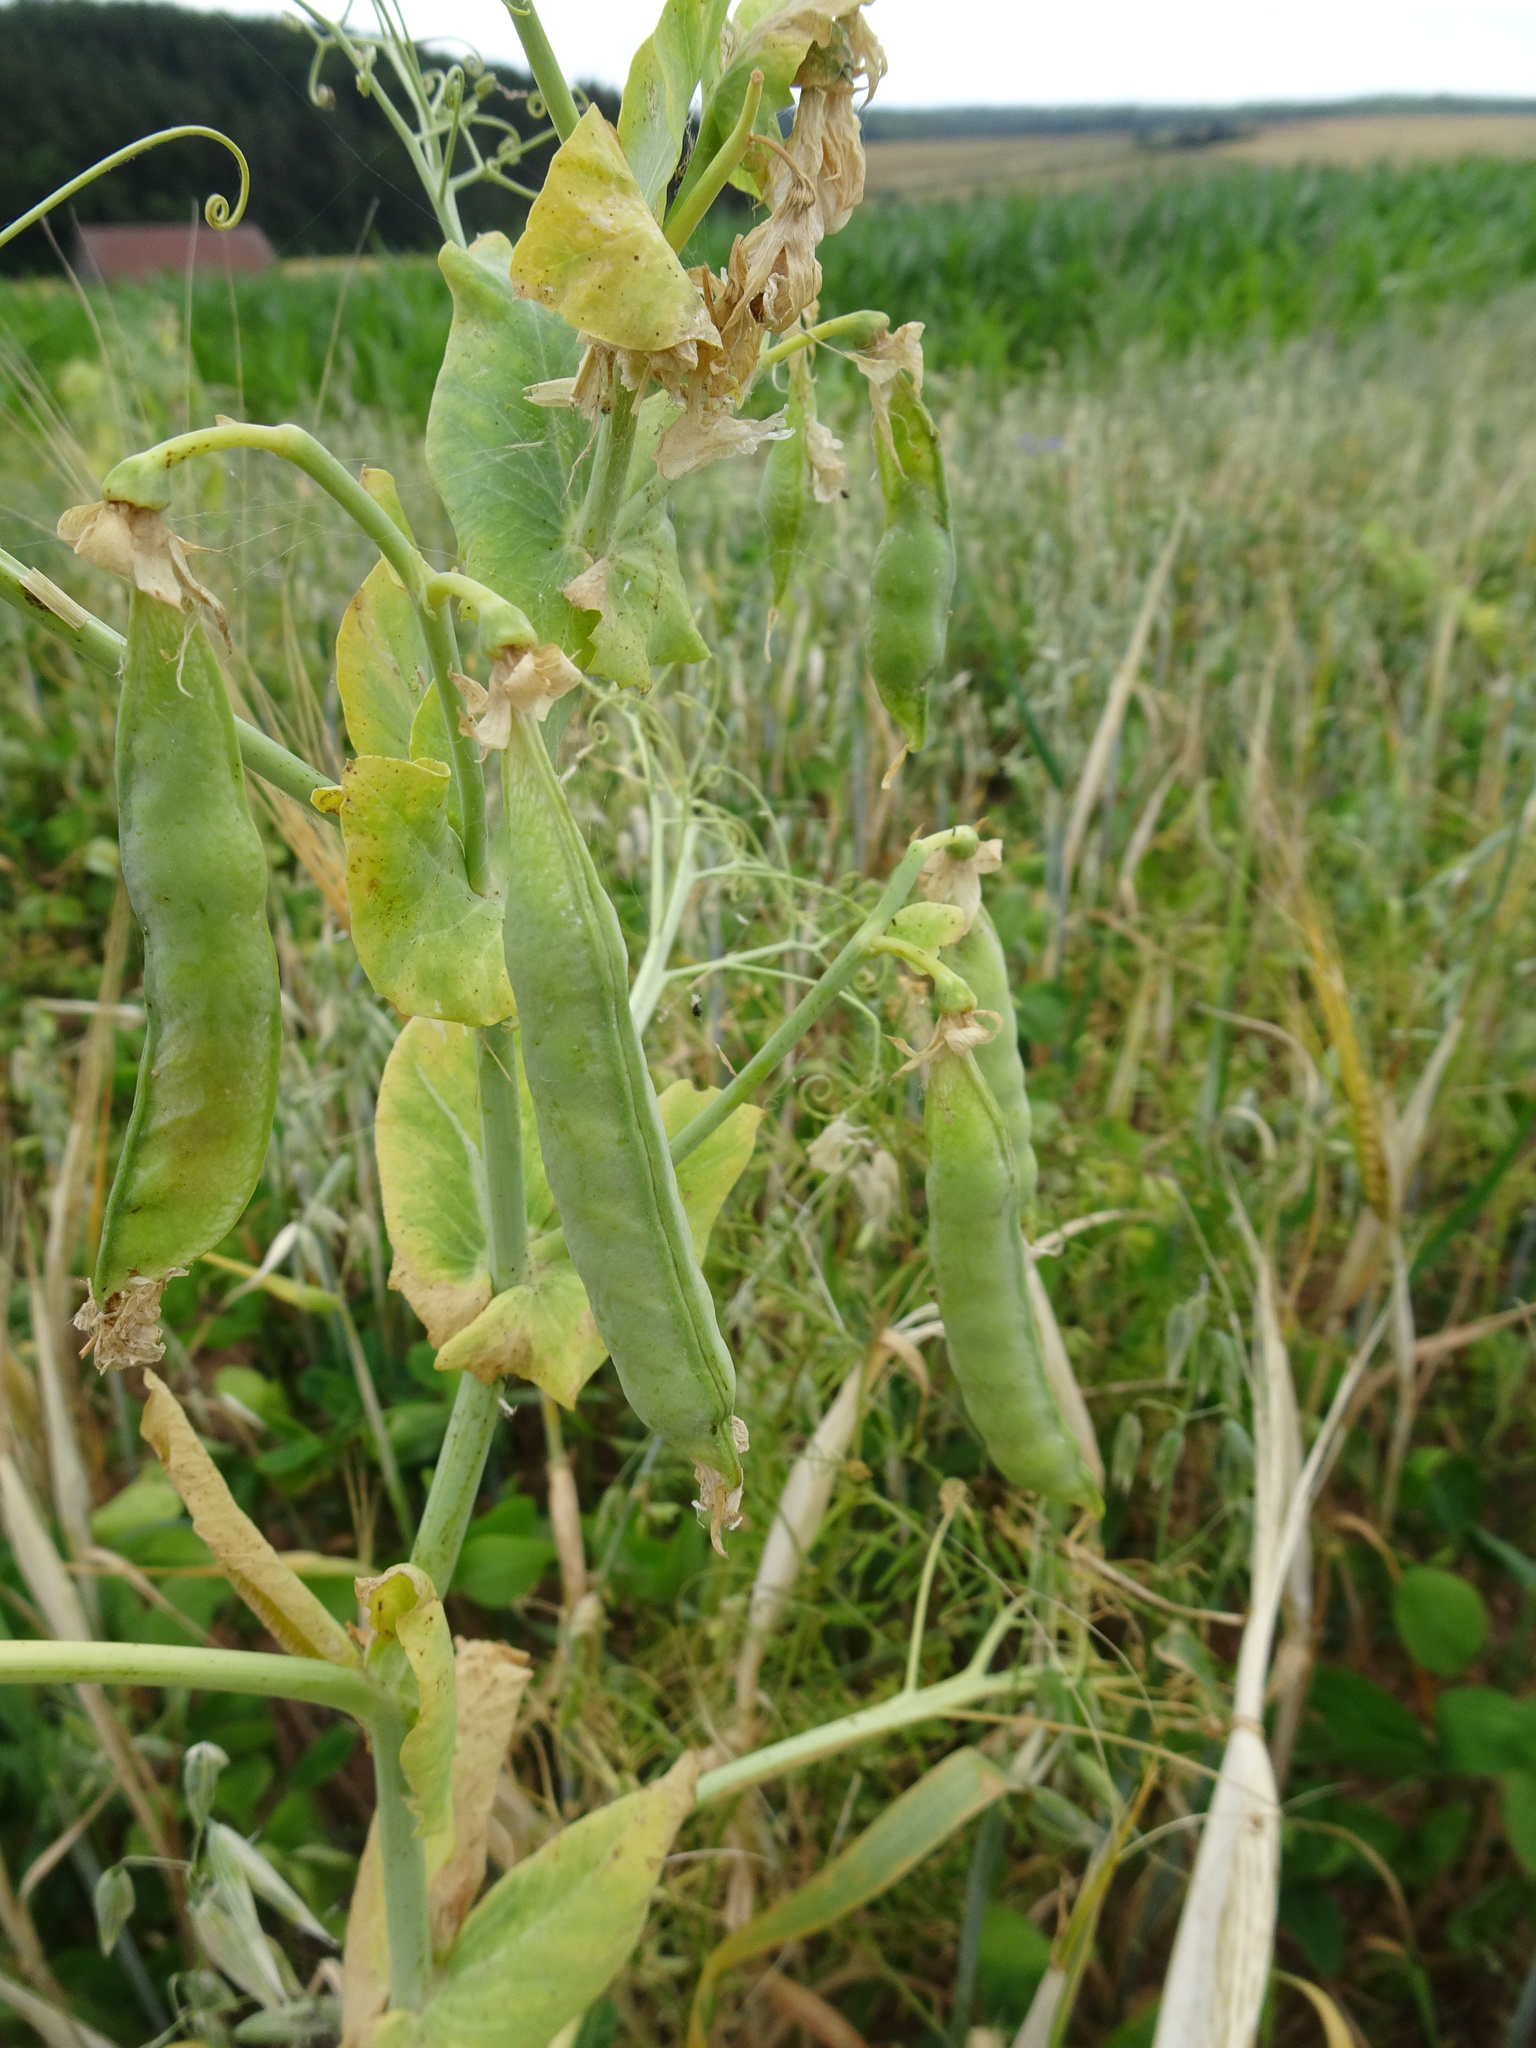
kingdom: Plantae
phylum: Tracheophyta
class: Magnoliopsida
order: Fabales
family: Fabaceae
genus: Lathyrus
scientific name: Lathyrus oleraceus
